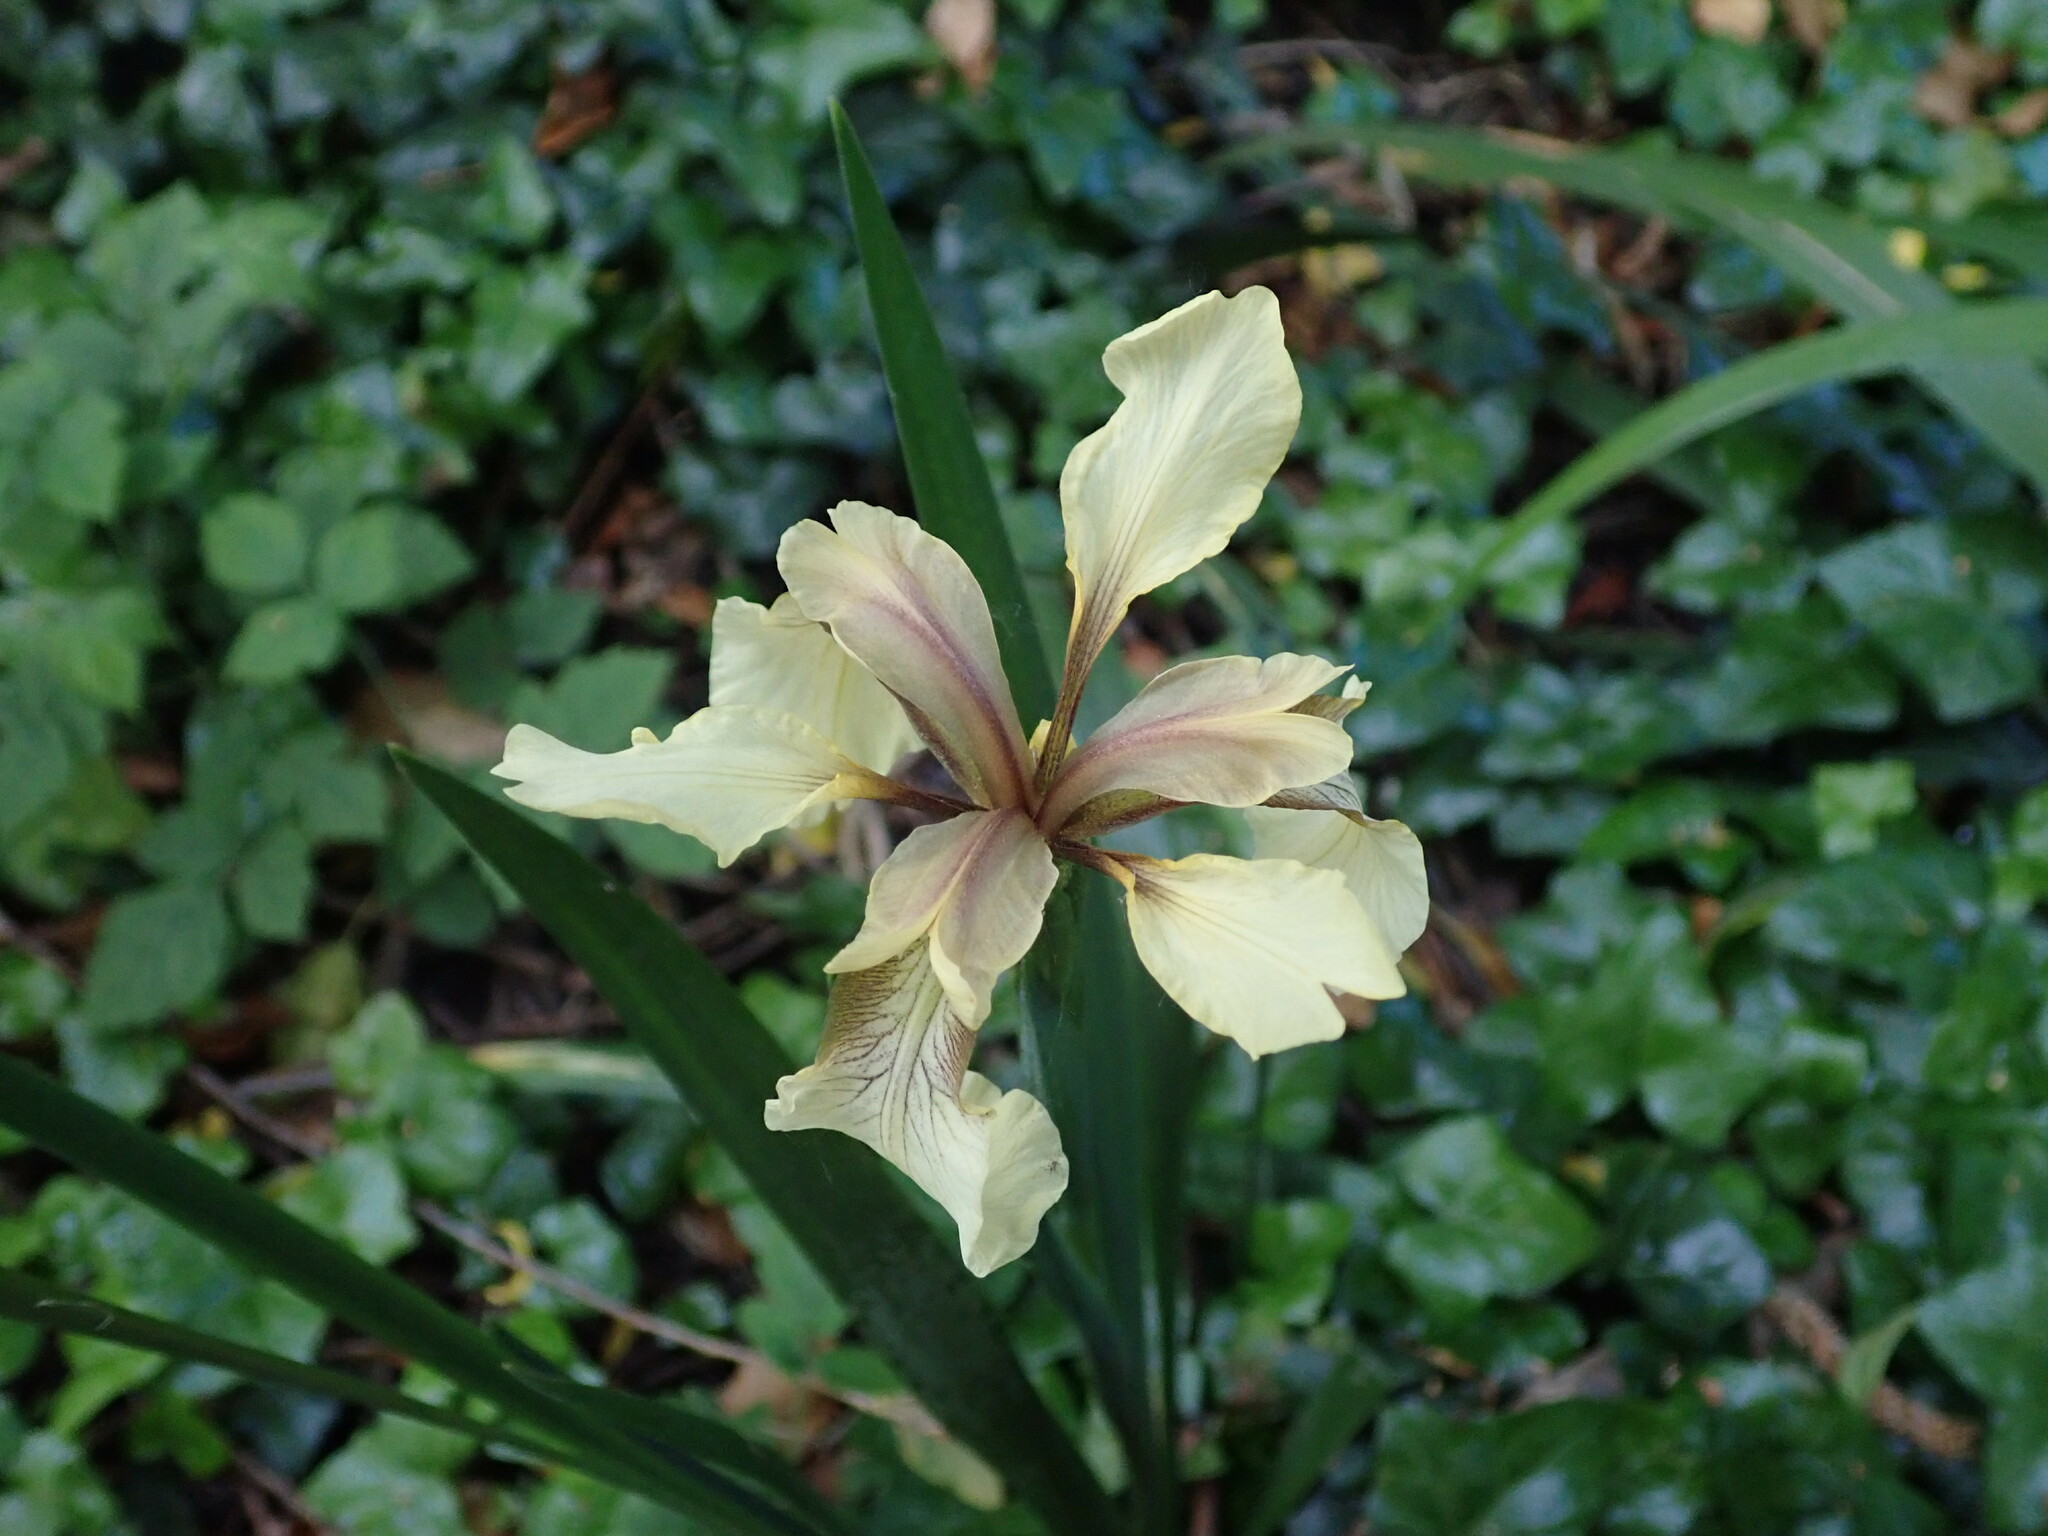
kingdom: Plantae
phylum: Tracheophyta
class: Liliopsida
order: Asparagales
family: Iridaceae
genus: Iris
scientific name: Iris foetidissima
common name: Stinking iris
